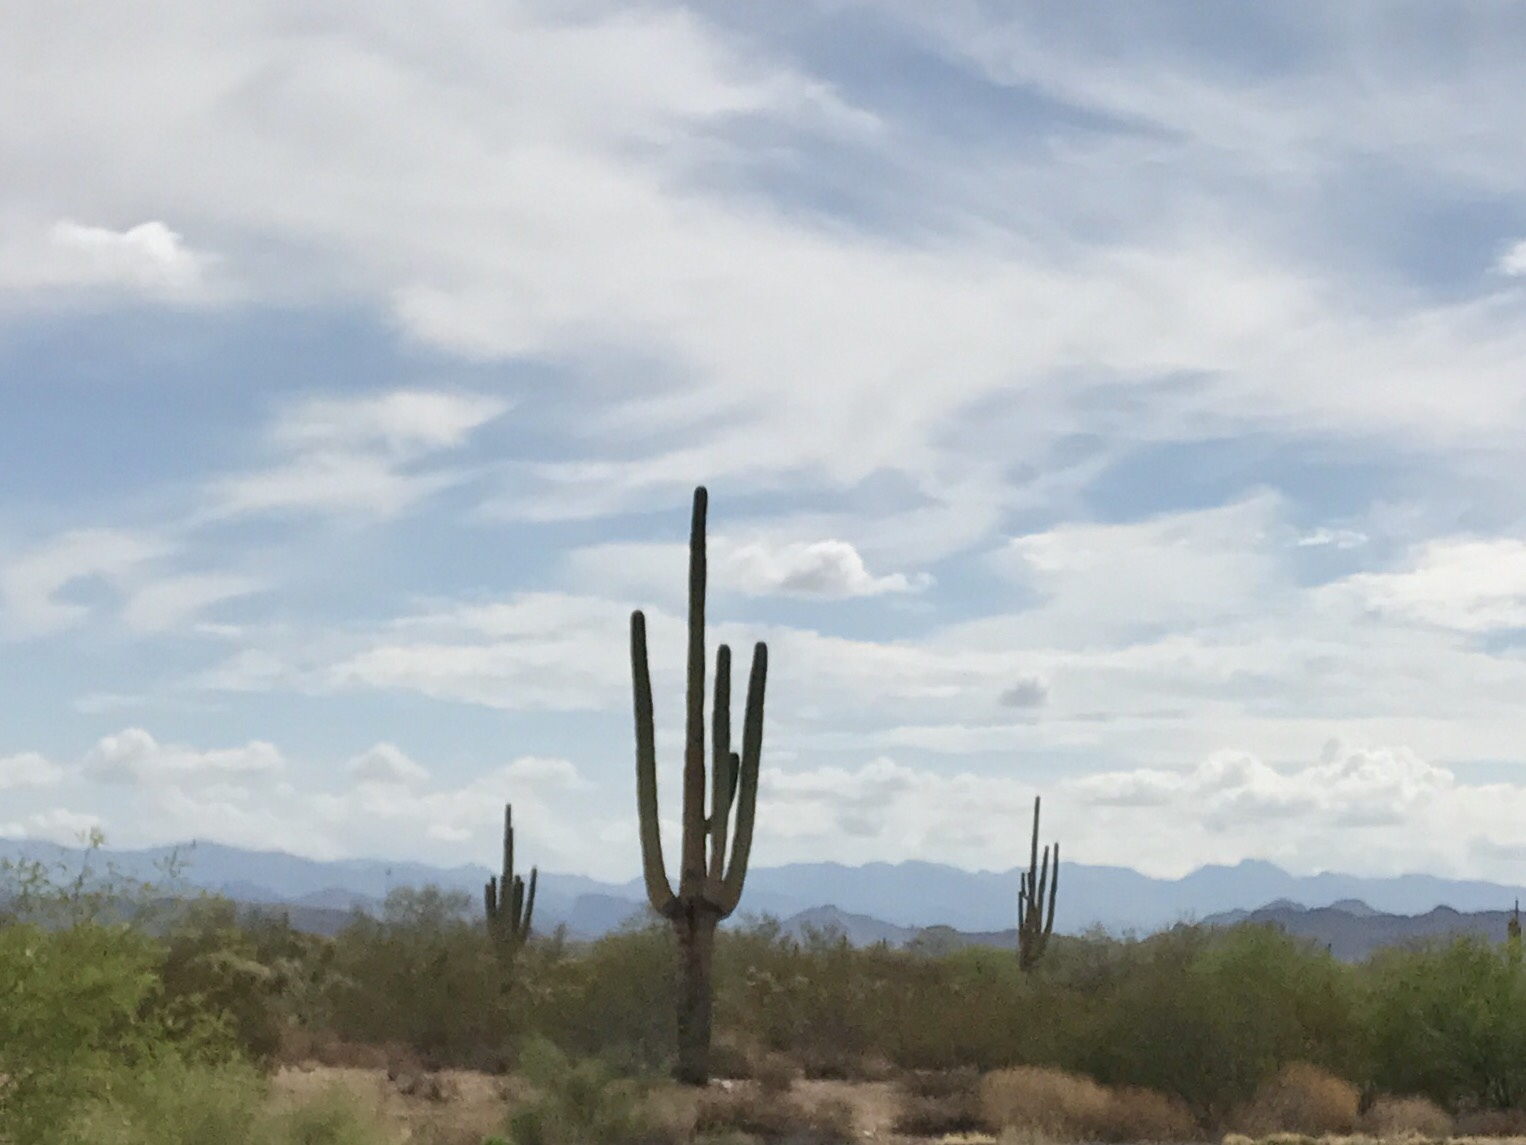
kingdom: Plantae
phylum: Tracheophyta
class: Magnoliopsida
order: Caryophyllales
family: Cactaceae
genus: Carnegiea
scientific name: Carnegiea gigantea
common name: Saguaro
